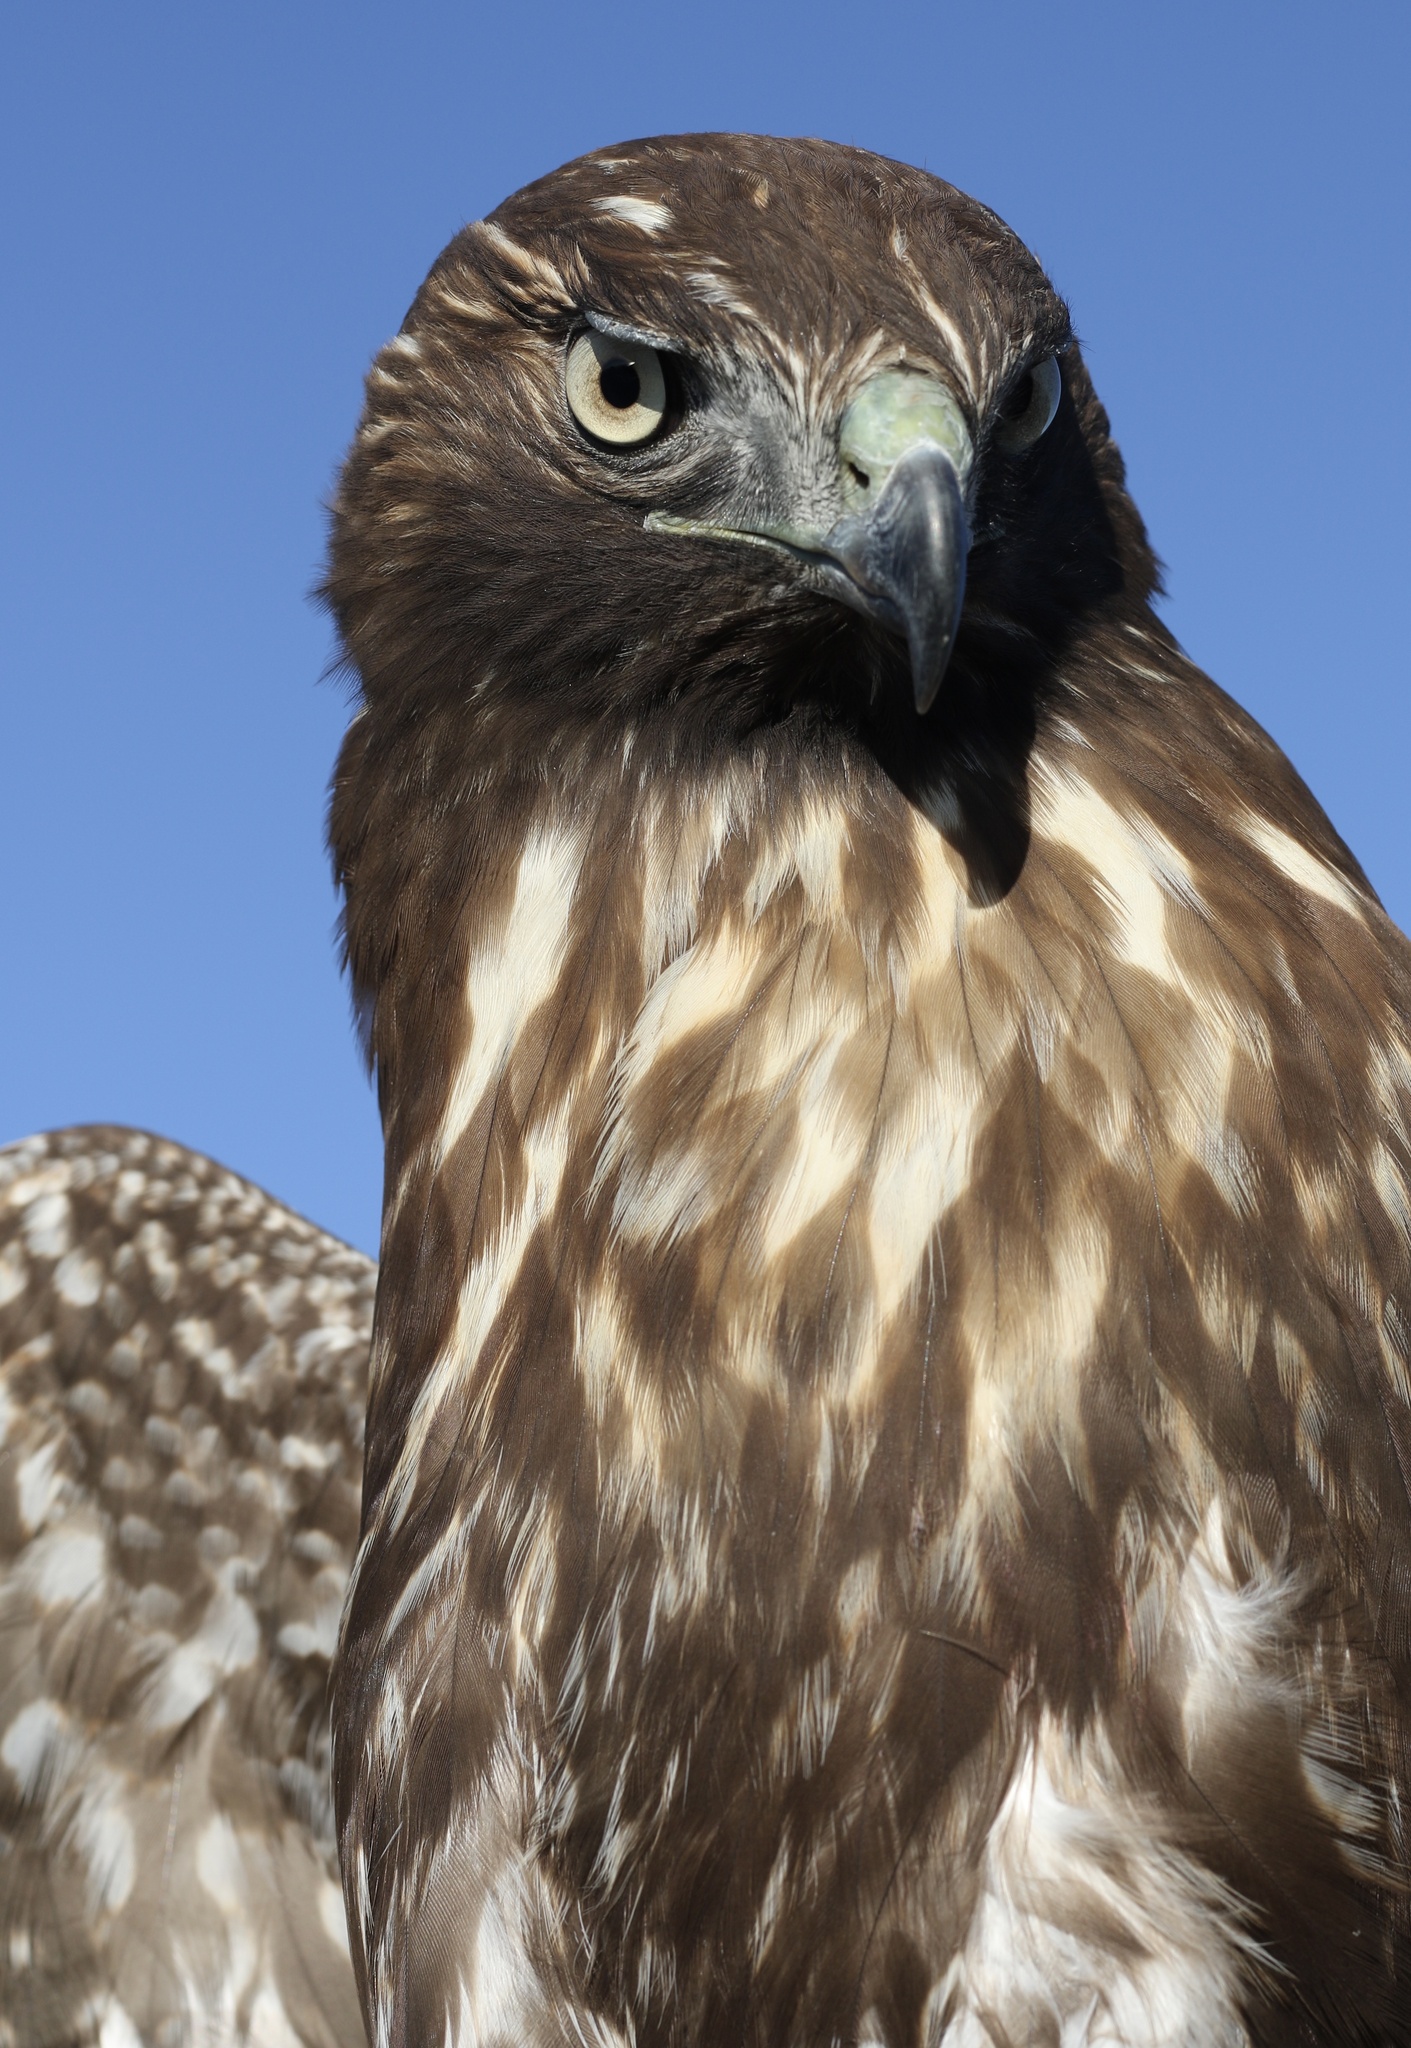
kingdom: Animalia
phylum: Chordata
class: Aves
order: Accipitriformes
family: Accipitridae
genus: Buteo
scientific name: Buteo jamaicensis
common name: Red-tailed hawk
